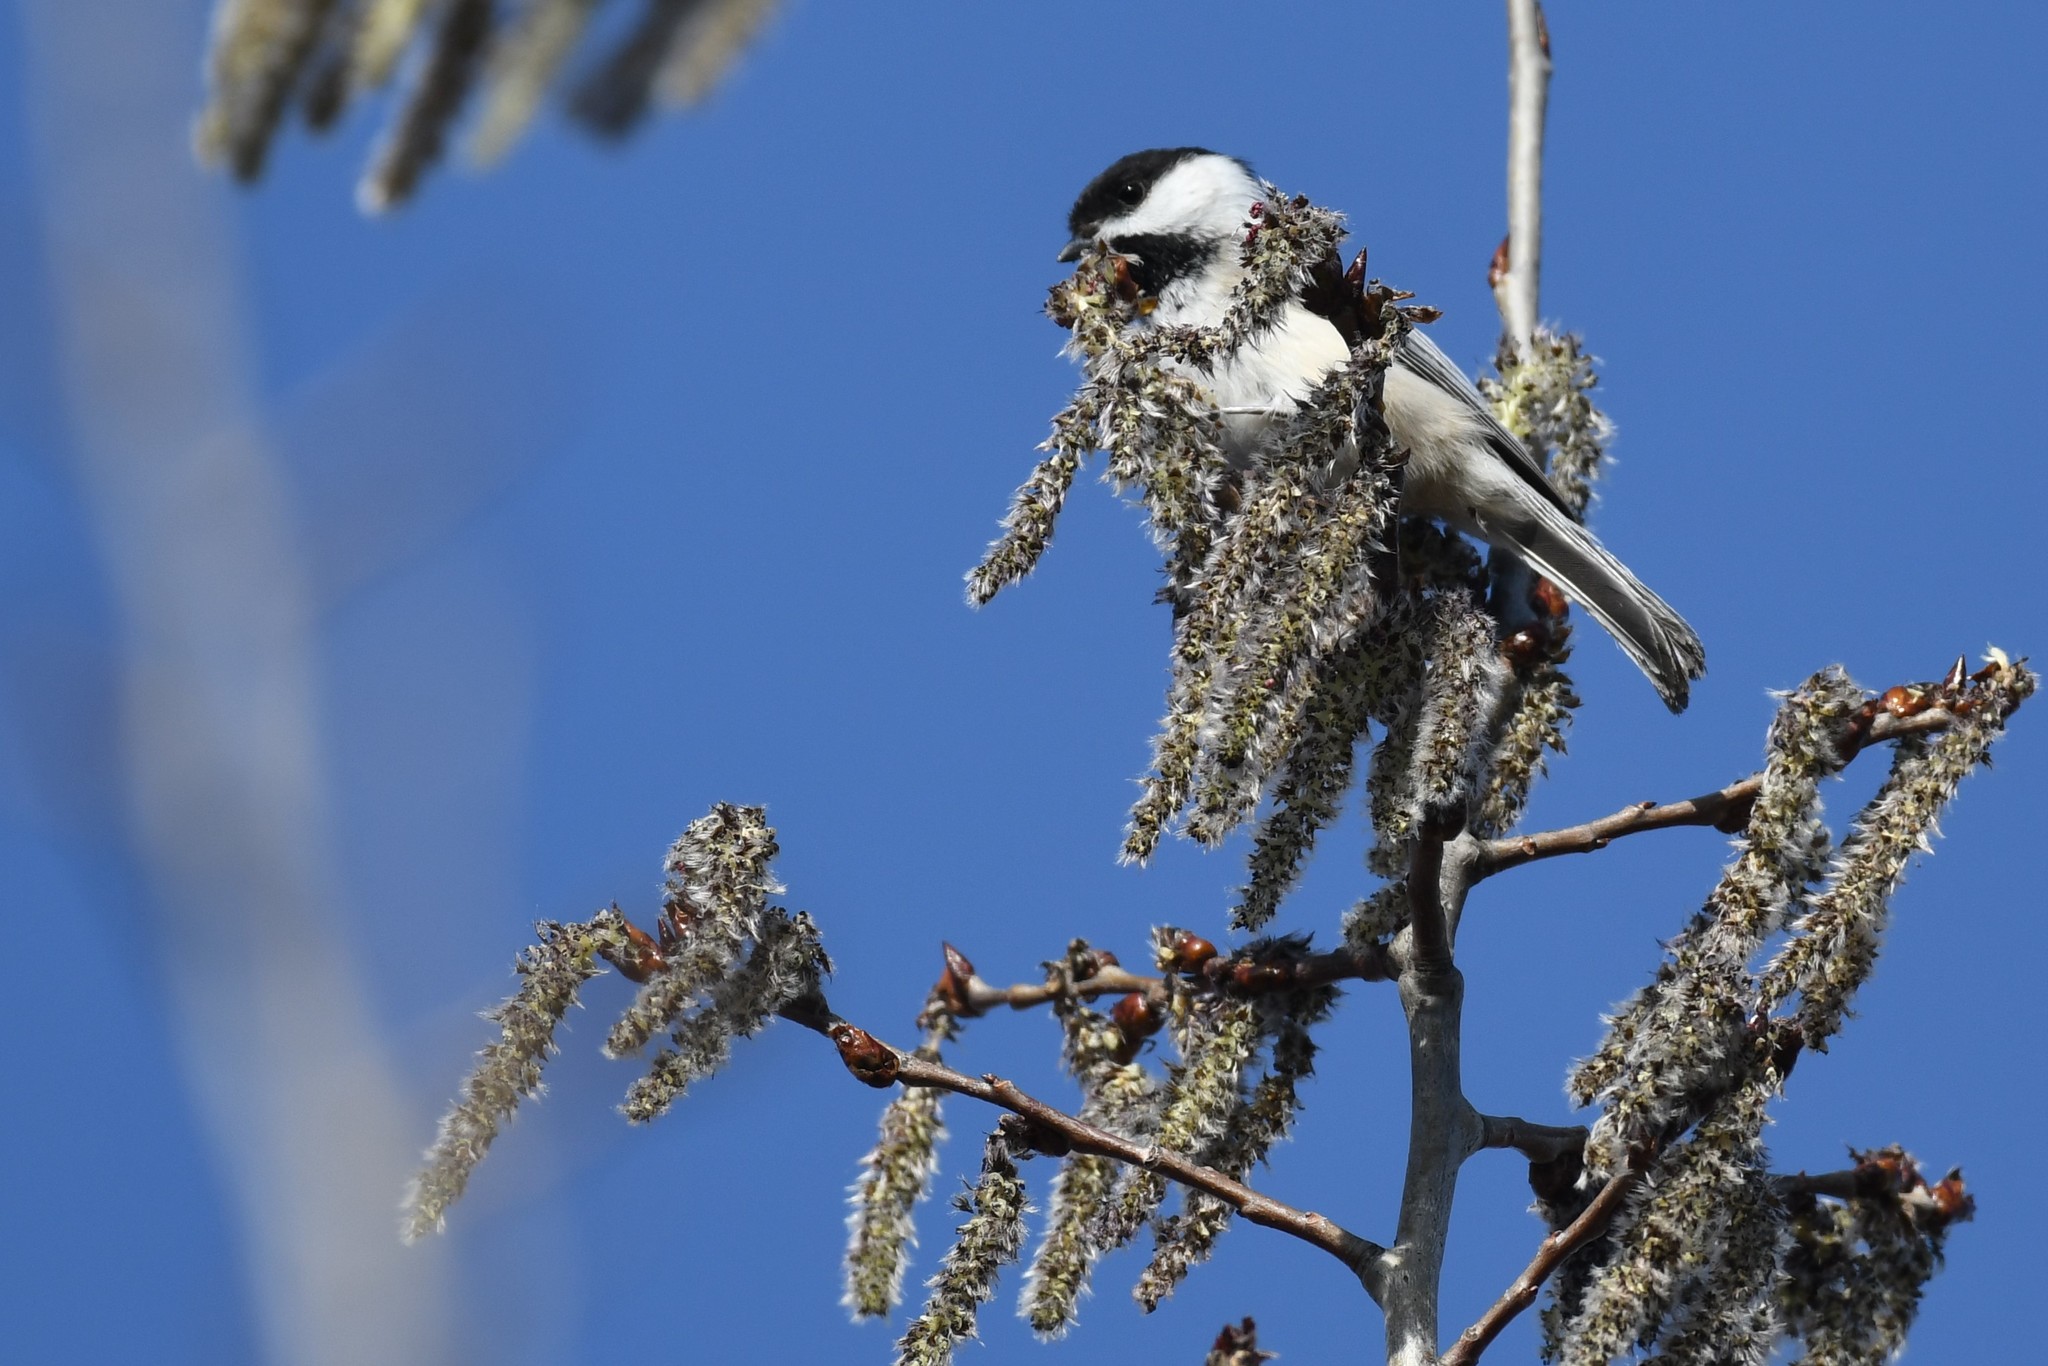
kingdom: Animalia
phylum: Chordata
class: Aves
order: Passeriformes
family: Paridae
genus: Poecile
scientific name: Poecile atricapillus
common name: Black-capped chickadee
